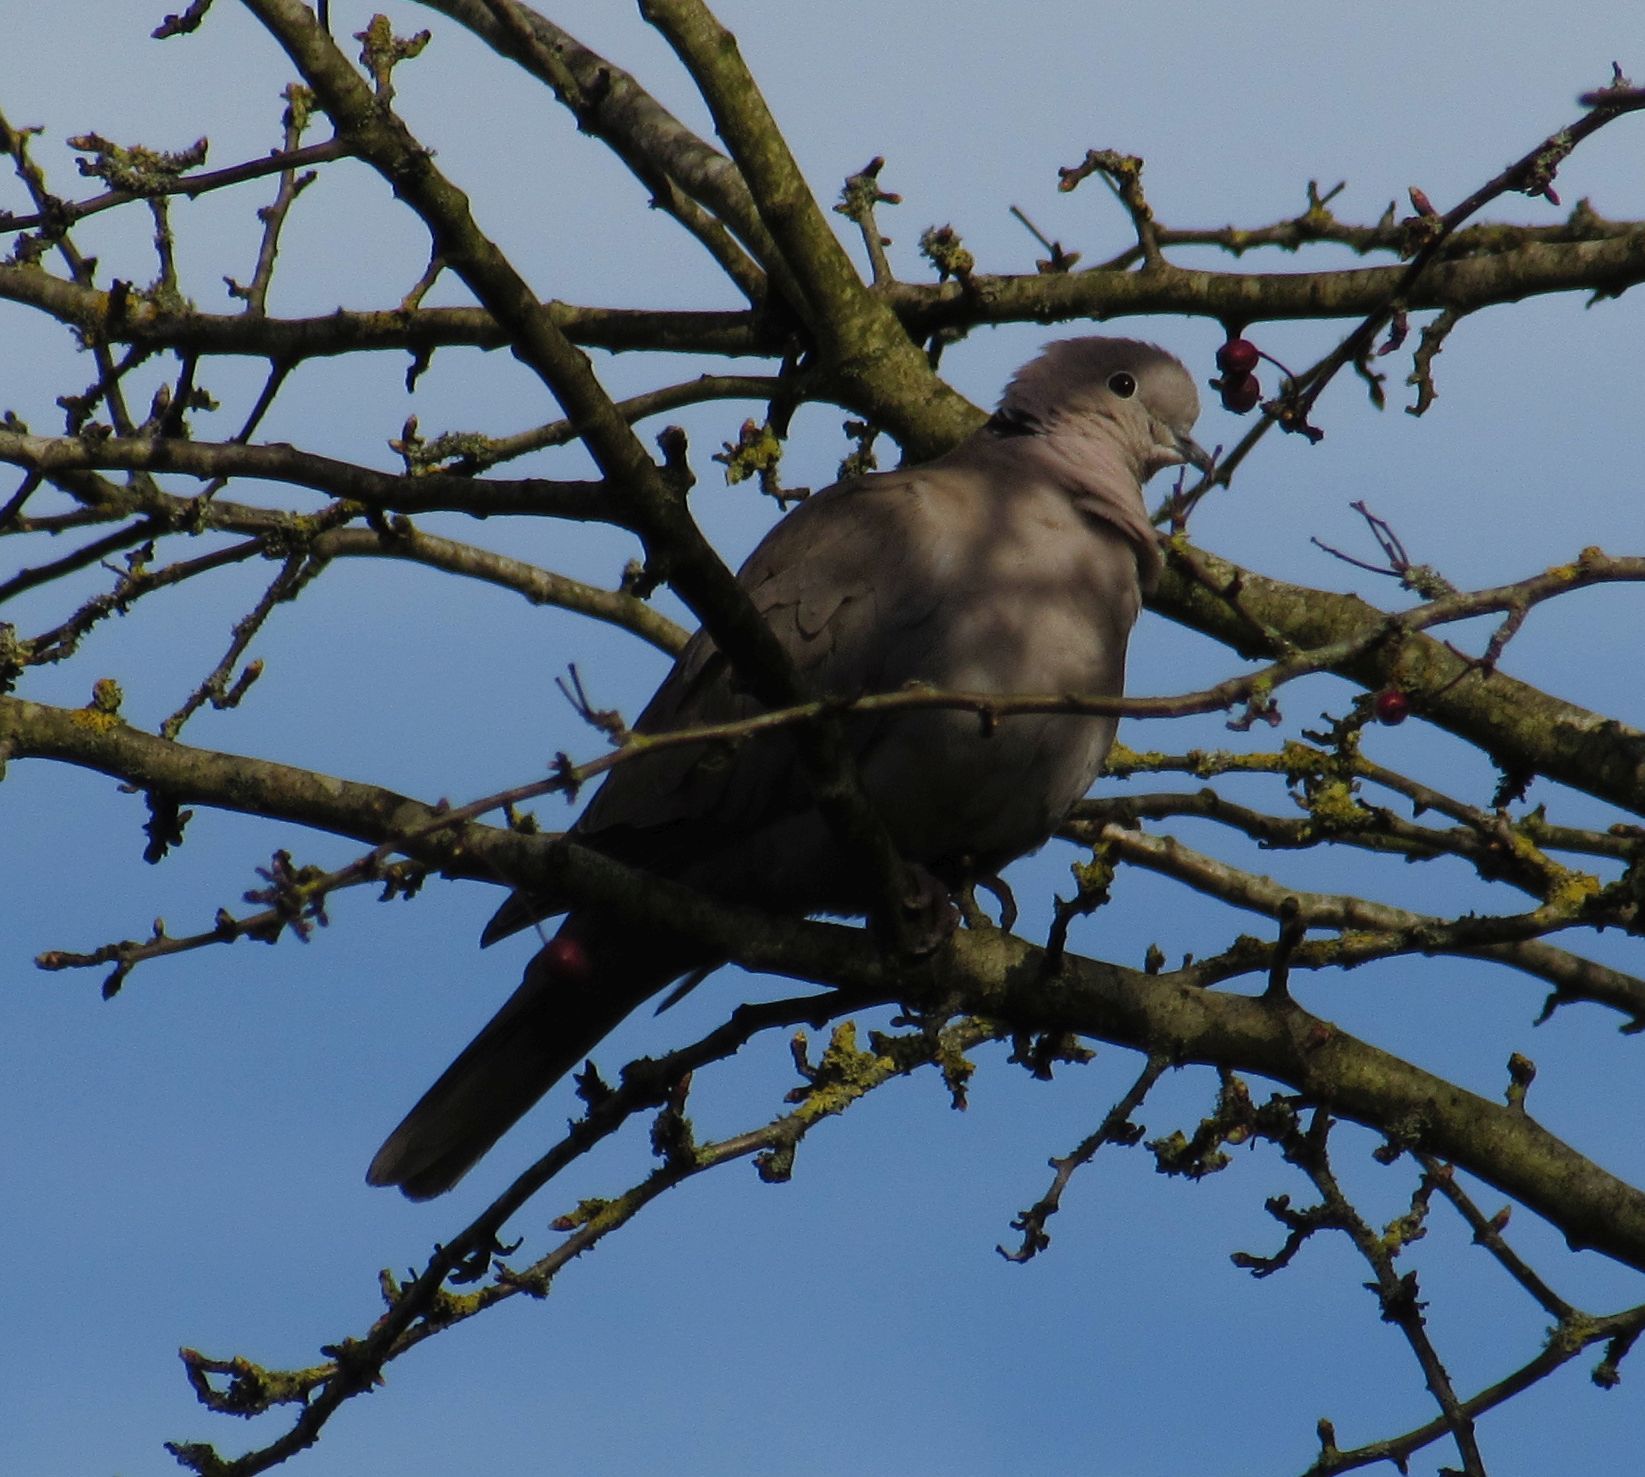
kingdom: Animalia
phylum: Chordata
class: Aves
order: Columbiformes
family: Columbidae
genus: Streptopelia
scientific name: Streptopelia decaocto
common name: Eurasian collared dove
